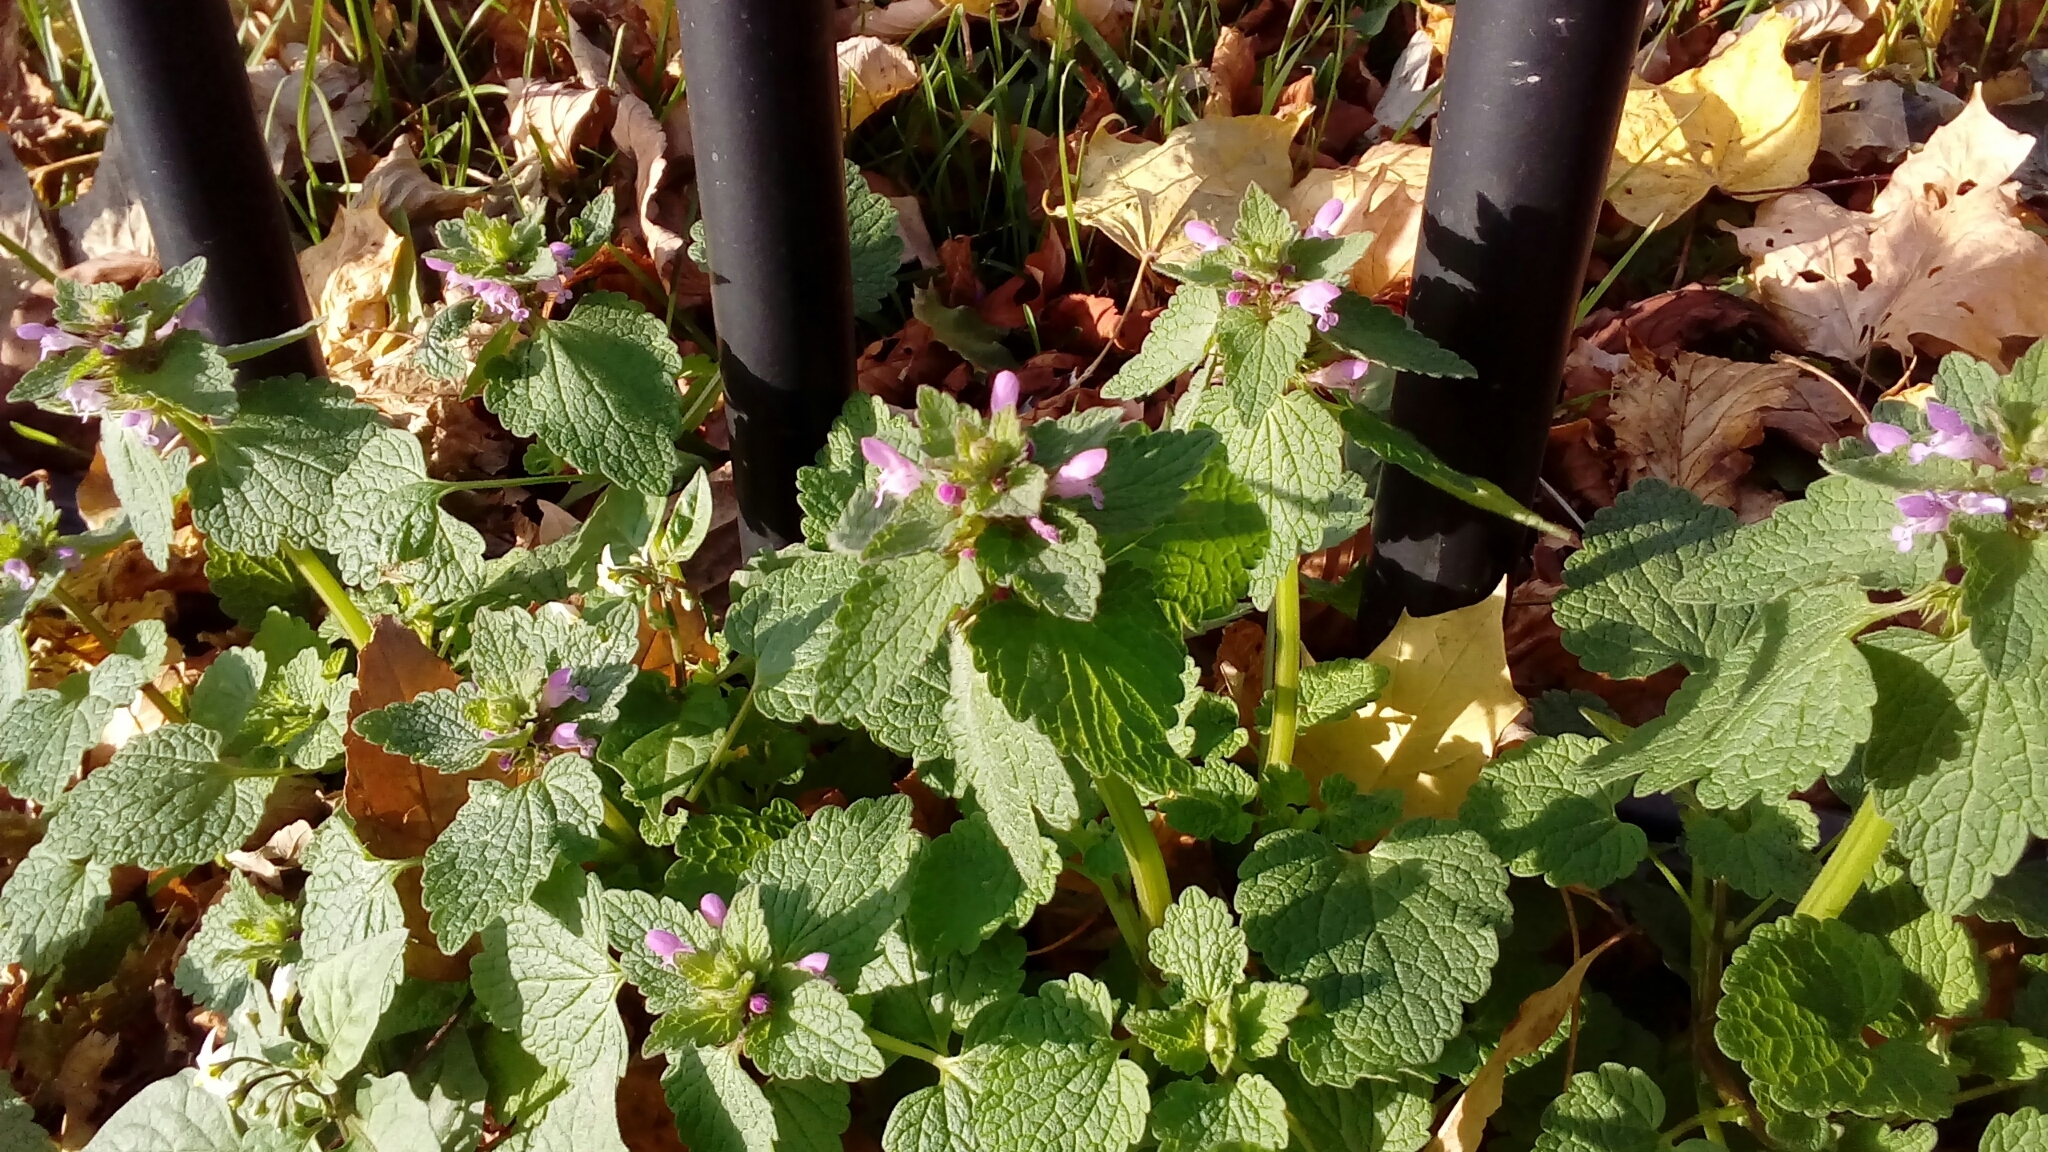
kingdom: Plantae
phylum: Tracheophyta
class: Magnoliopsida
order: Lamiales
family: Lamiaceae
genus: Lamium
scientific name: Lamium purpureum
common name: Red dead-nettle
